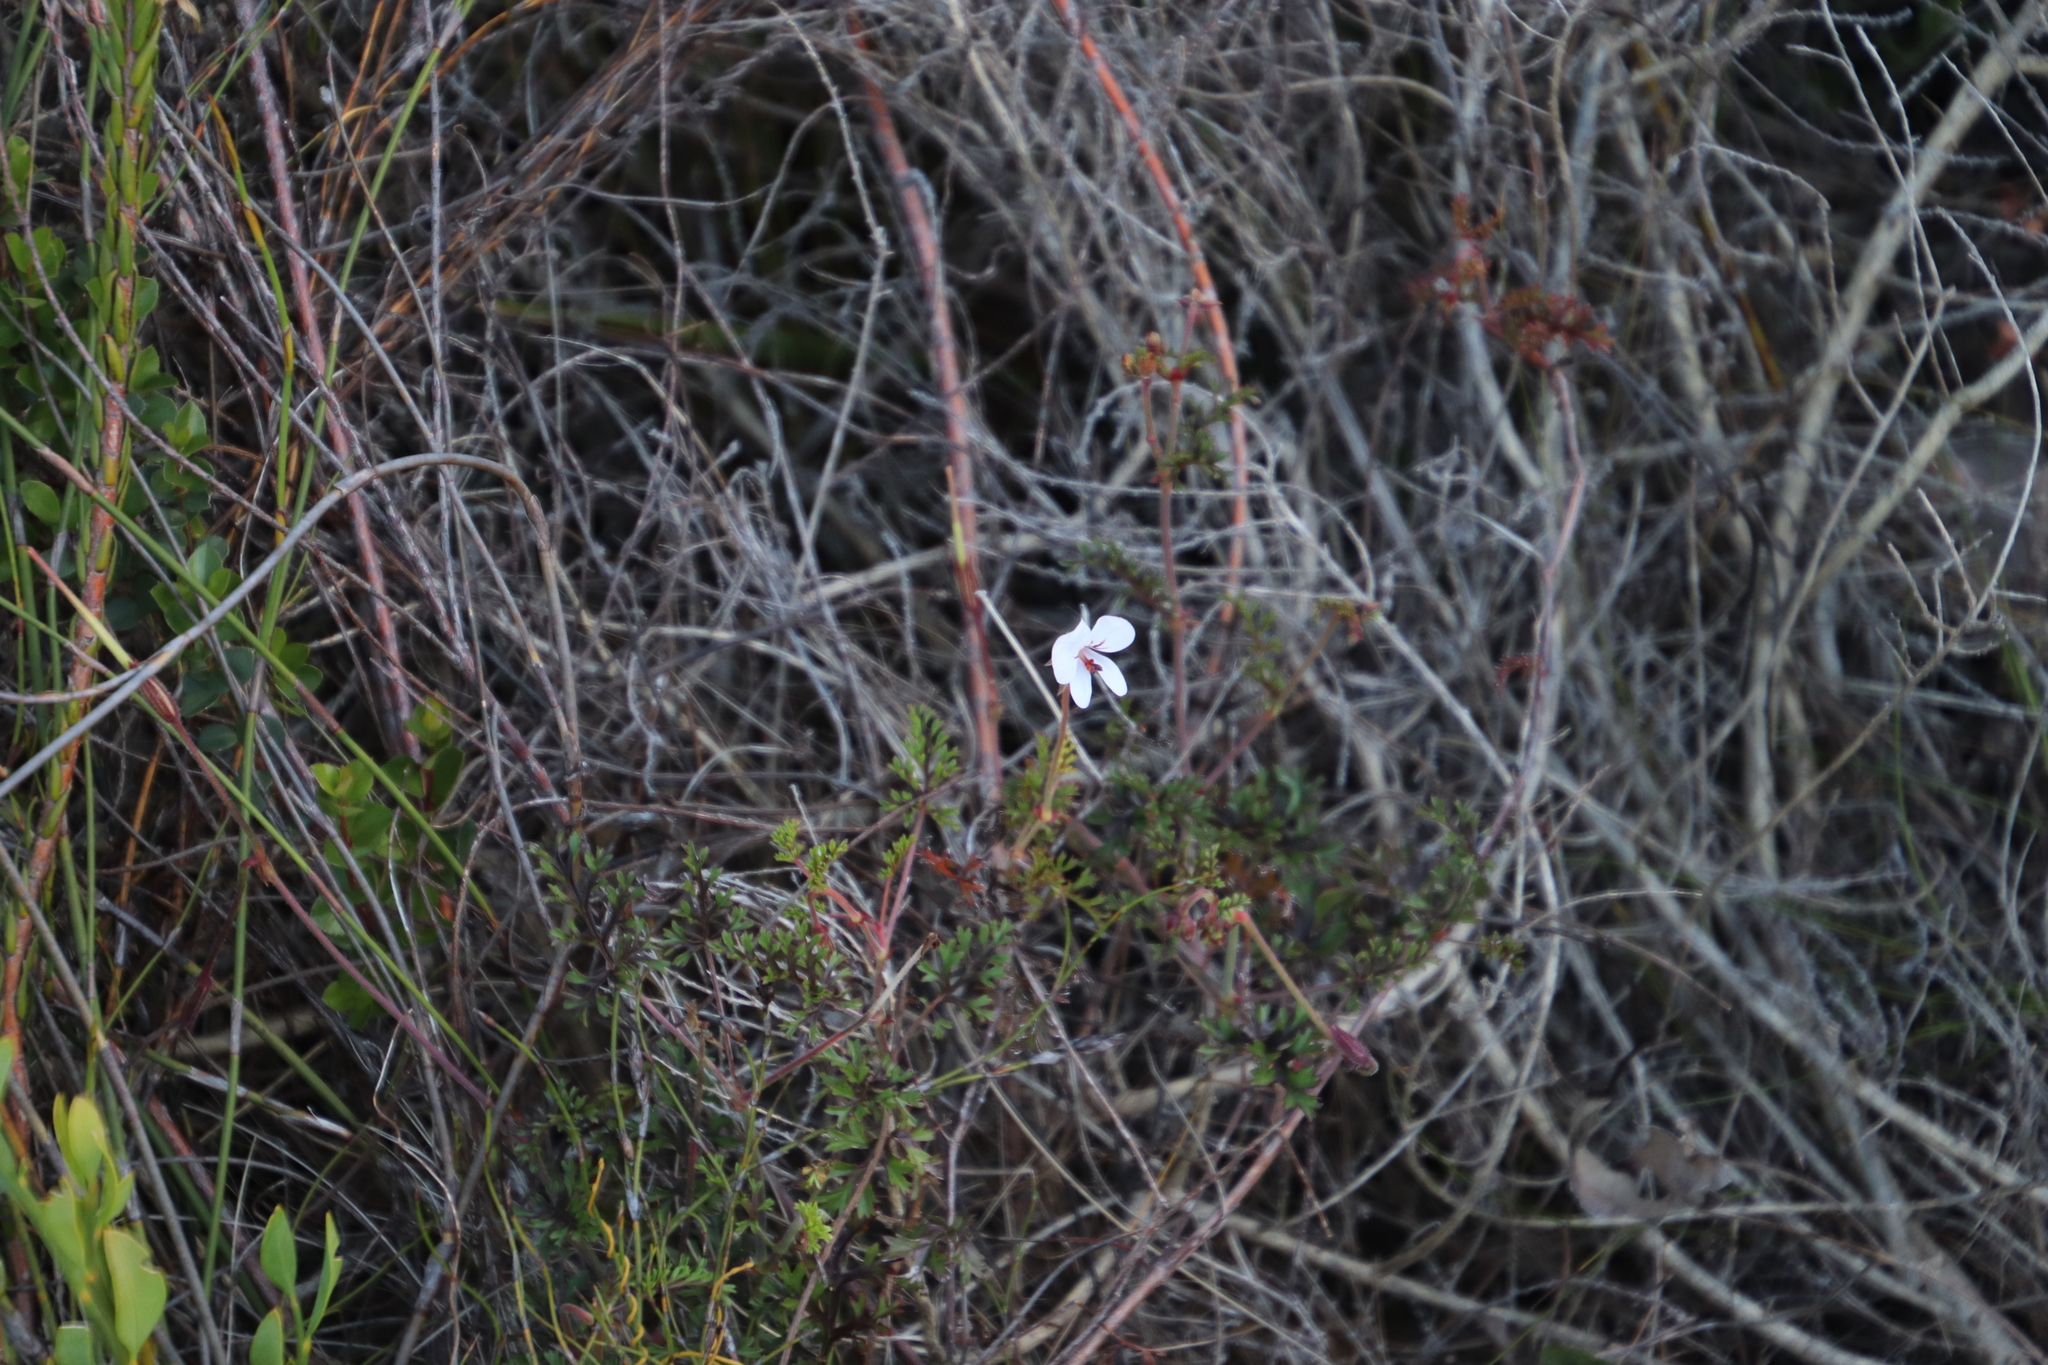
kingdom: Plantae
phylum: Tracheophyta
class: Magnoliopsida
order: Geraniales
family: Geraniaceae
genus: Pelargonium
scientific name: Pelargonium longicaule
